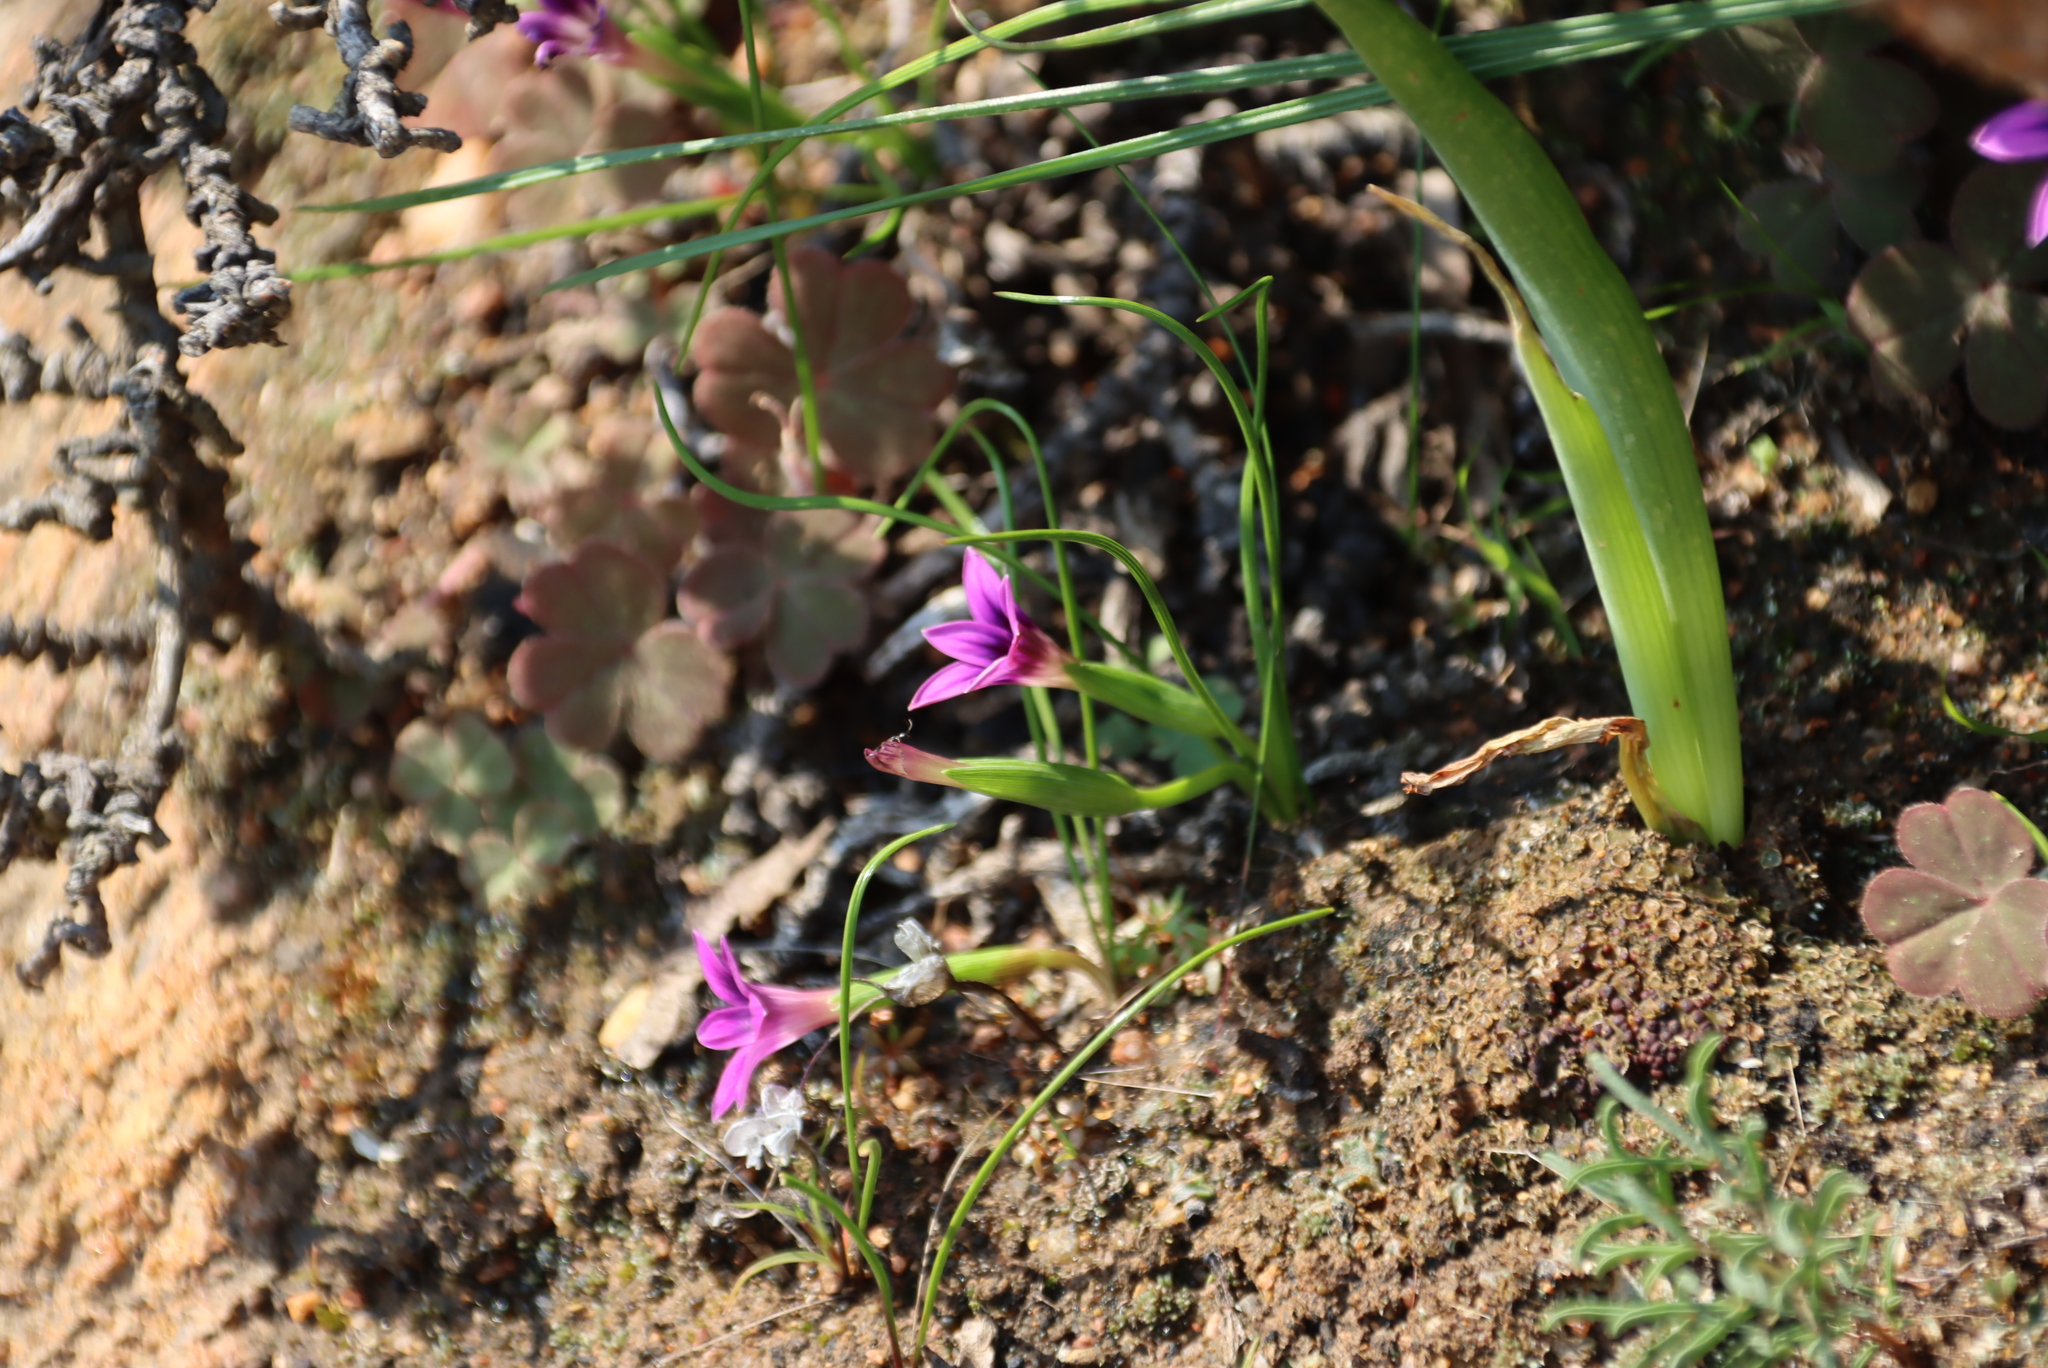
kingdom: Plantae
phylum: Tracheophyta
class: Liliopsida
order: Asparagales
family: Iridaceae
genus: Romulea
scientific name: Romulea kamisensis
